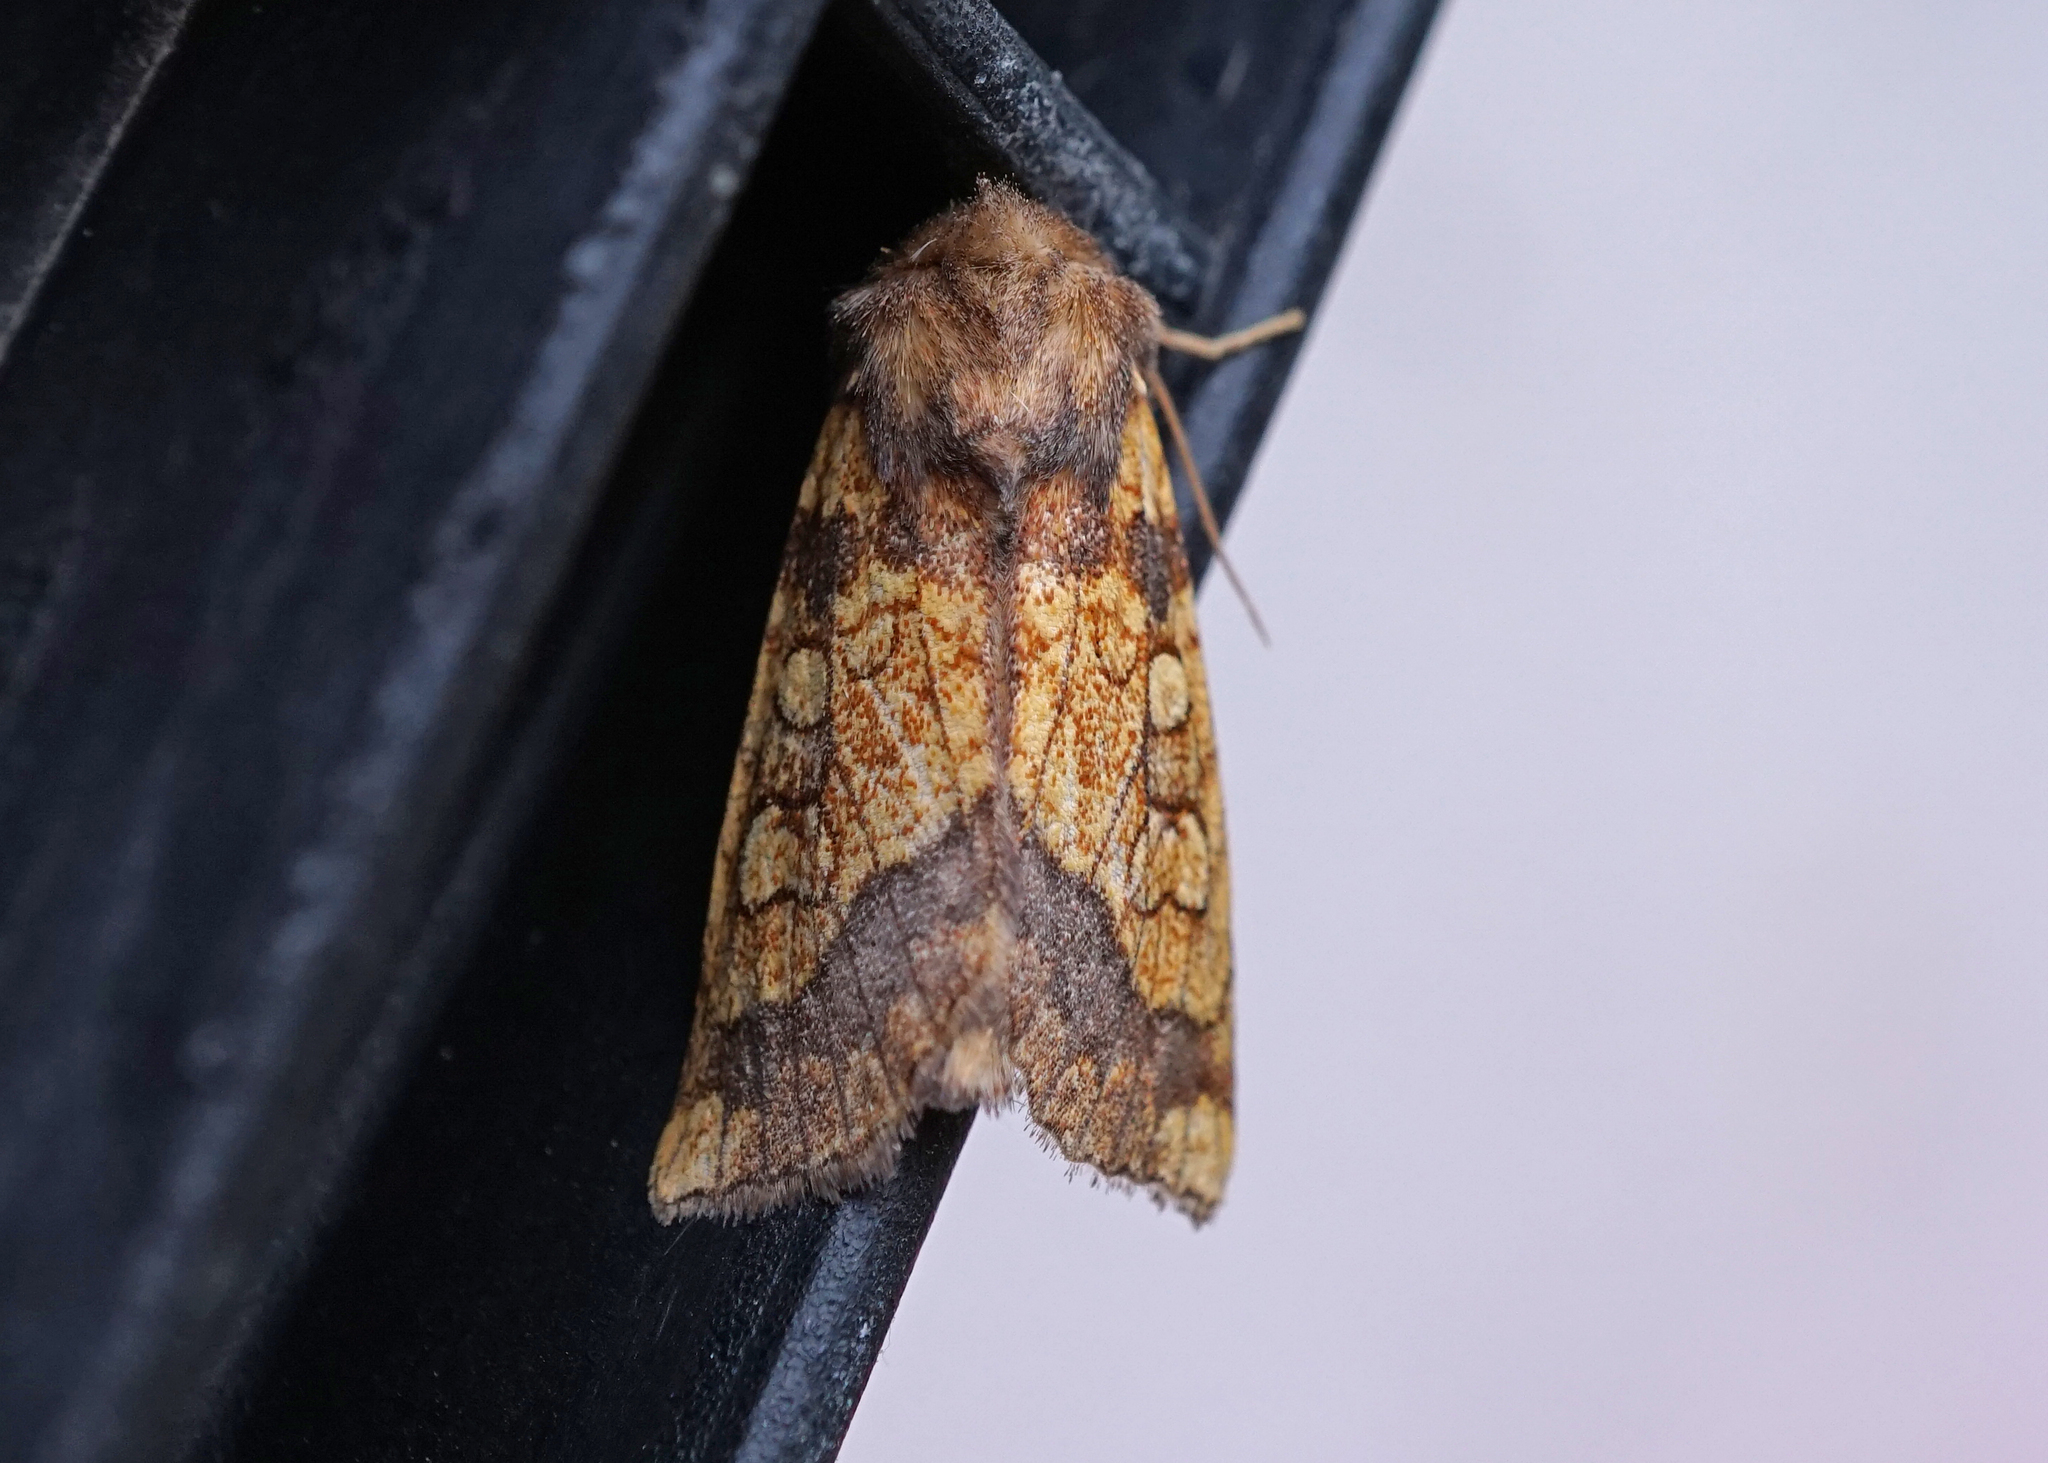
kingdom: Animalia
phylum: Arthropoda
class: Insecta
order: Lepidoptera
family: Noctuidae
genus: Gortyna
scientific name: Gortyna flavago
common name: Frosted orange
